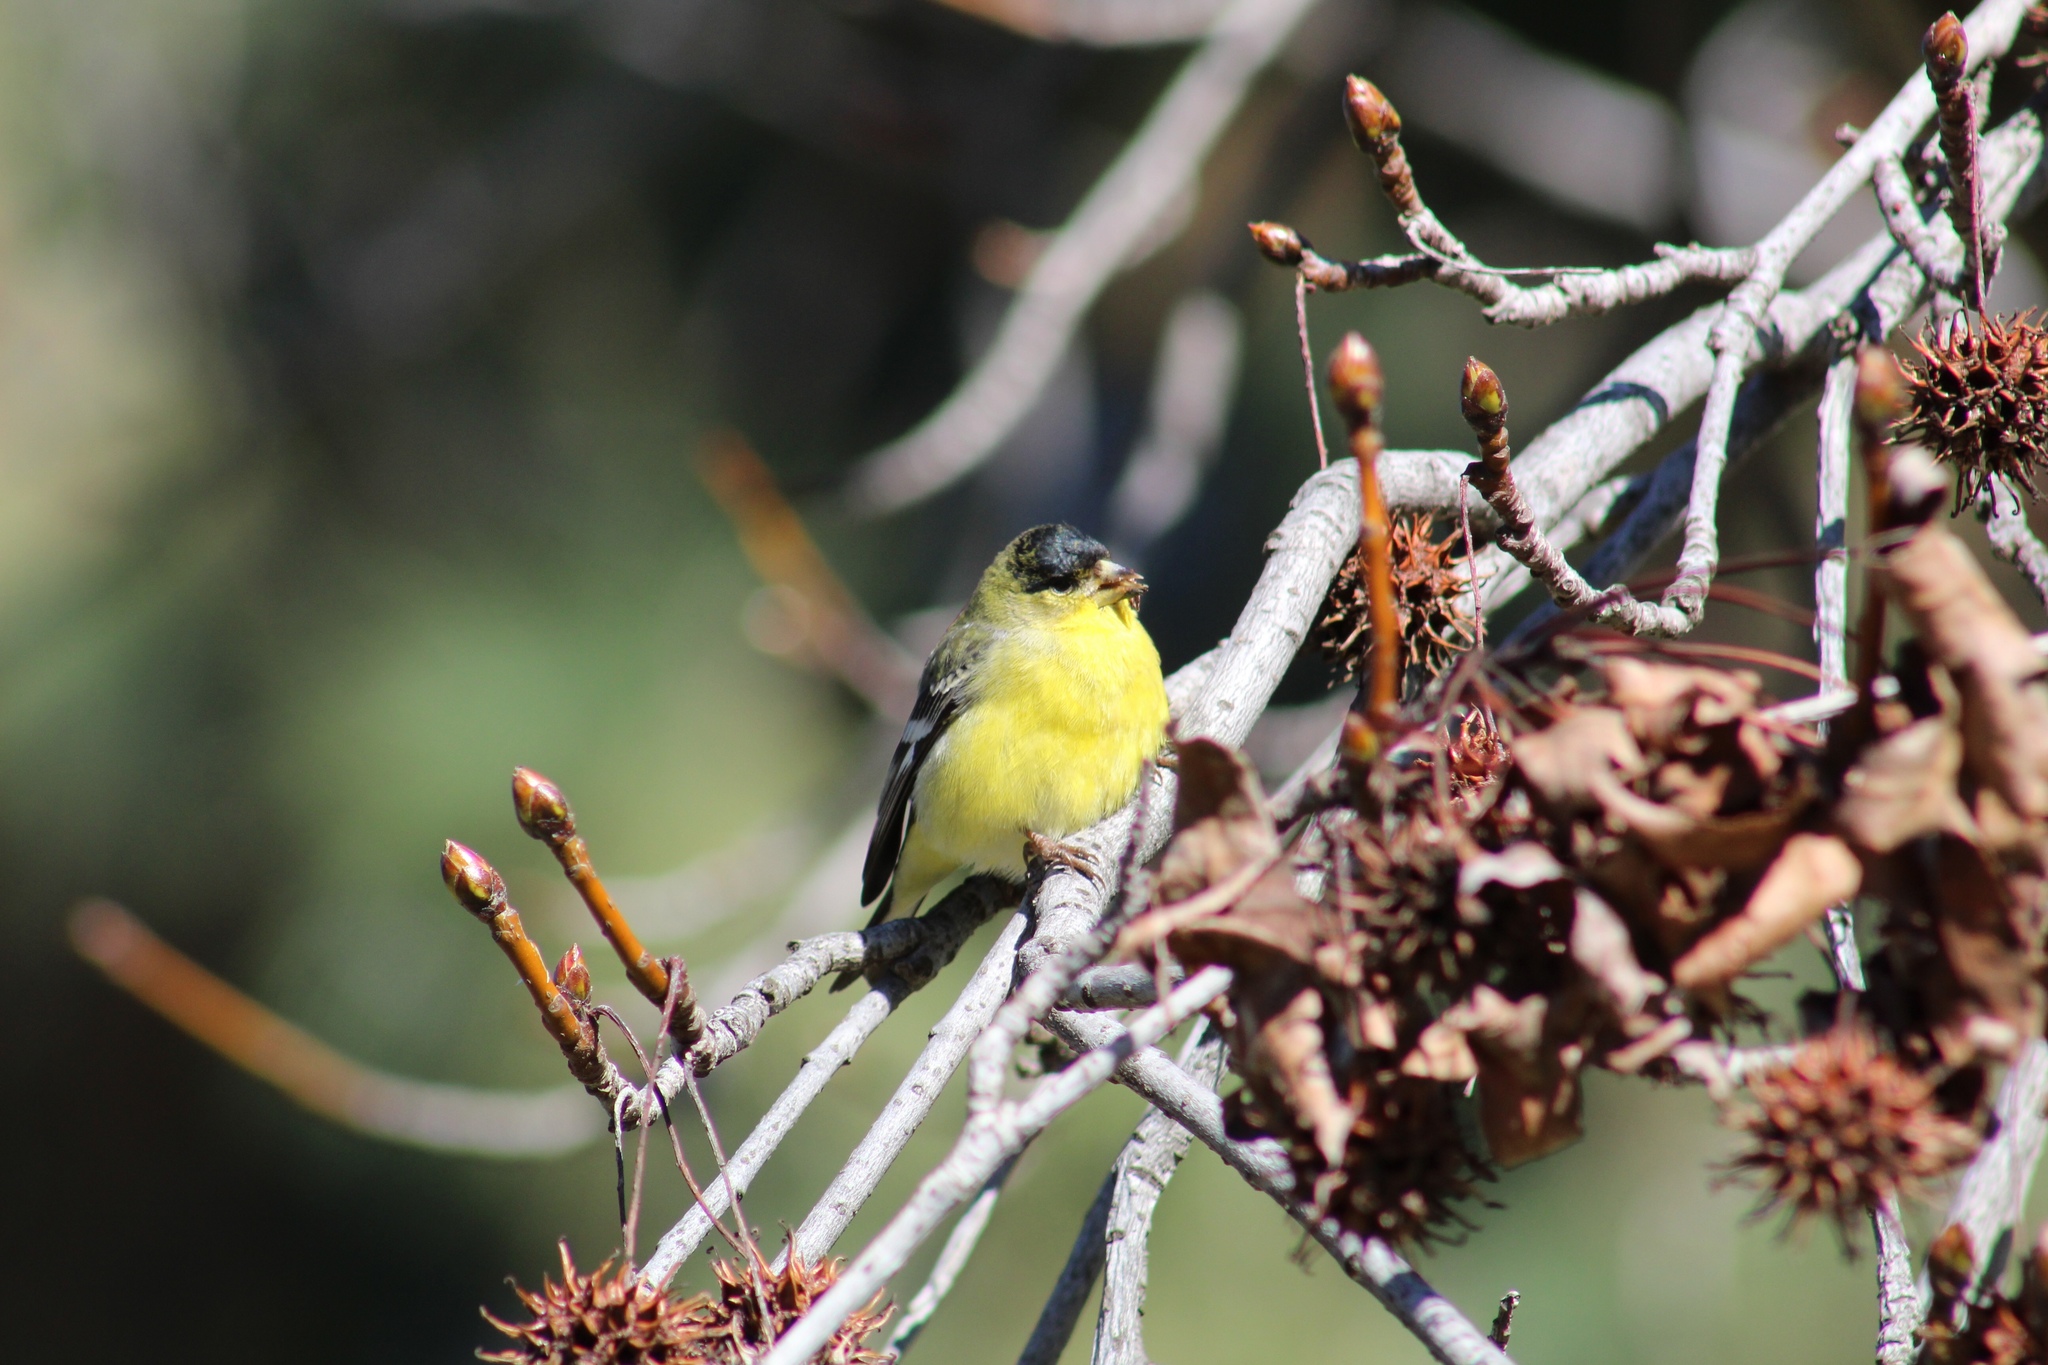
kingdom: Animalia
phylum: Chordata
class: Aves
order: Passeriformes
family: Fringillidae
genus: Spinus
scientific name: Spinus psaltria
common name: Lesser goldfinch
